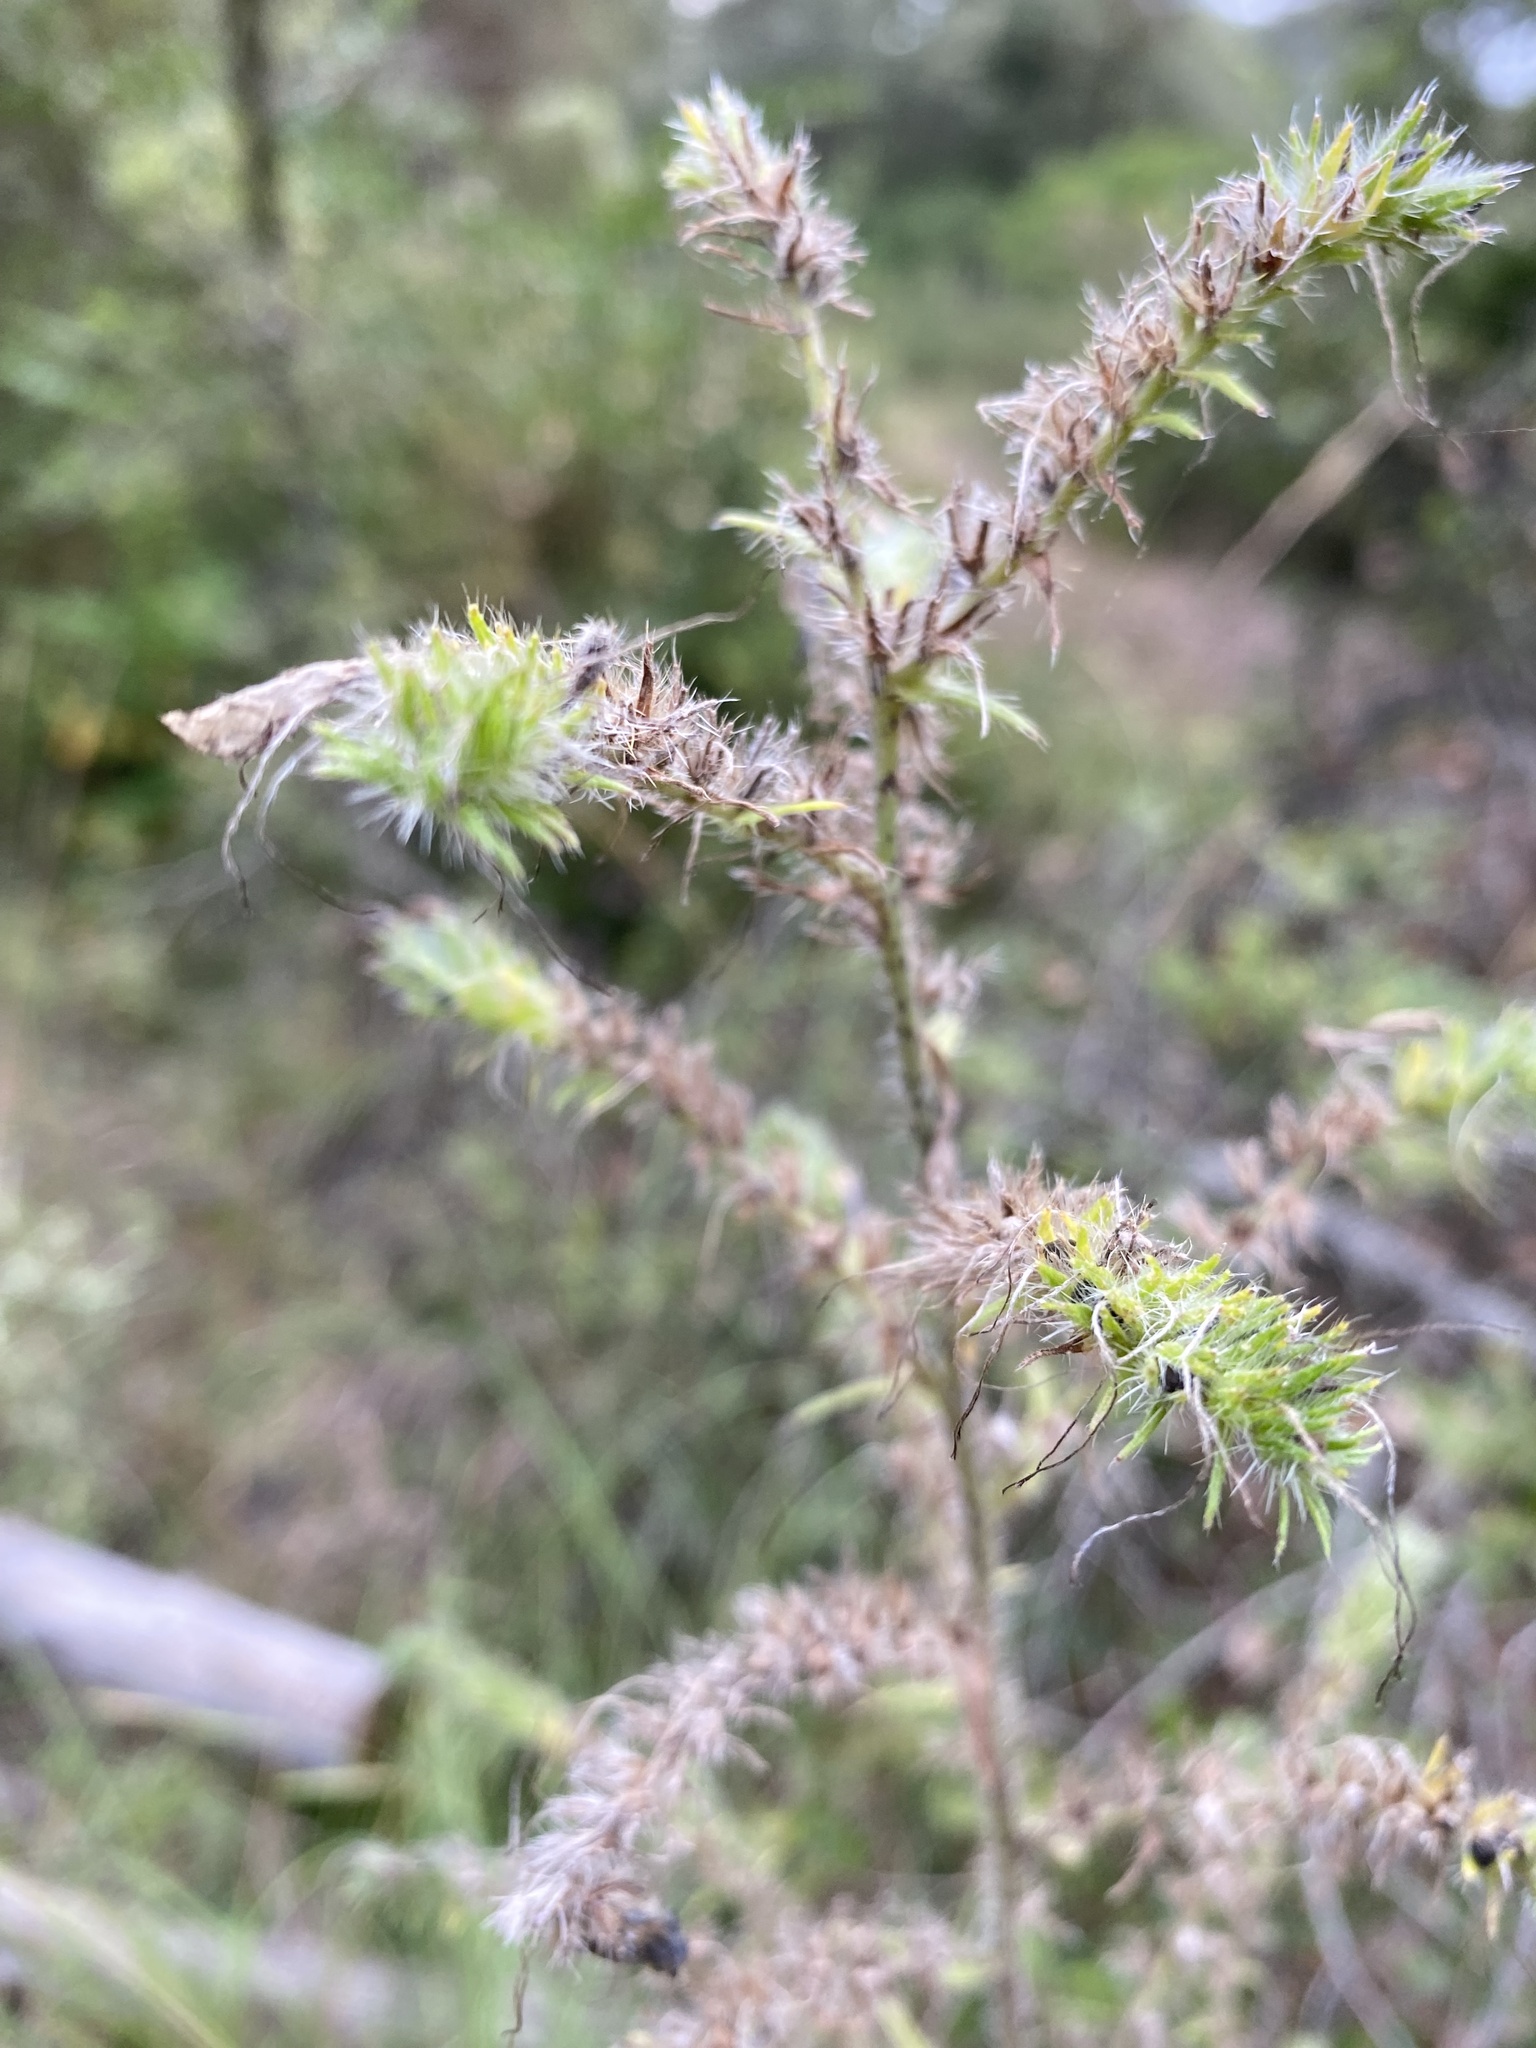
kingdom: Plantae
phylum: Tracheophyta
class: Magnoliopsida
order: Boraginales
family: Boraginaceae
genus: Echium
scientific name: Echium vulgare
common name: Common viper's bugloss
